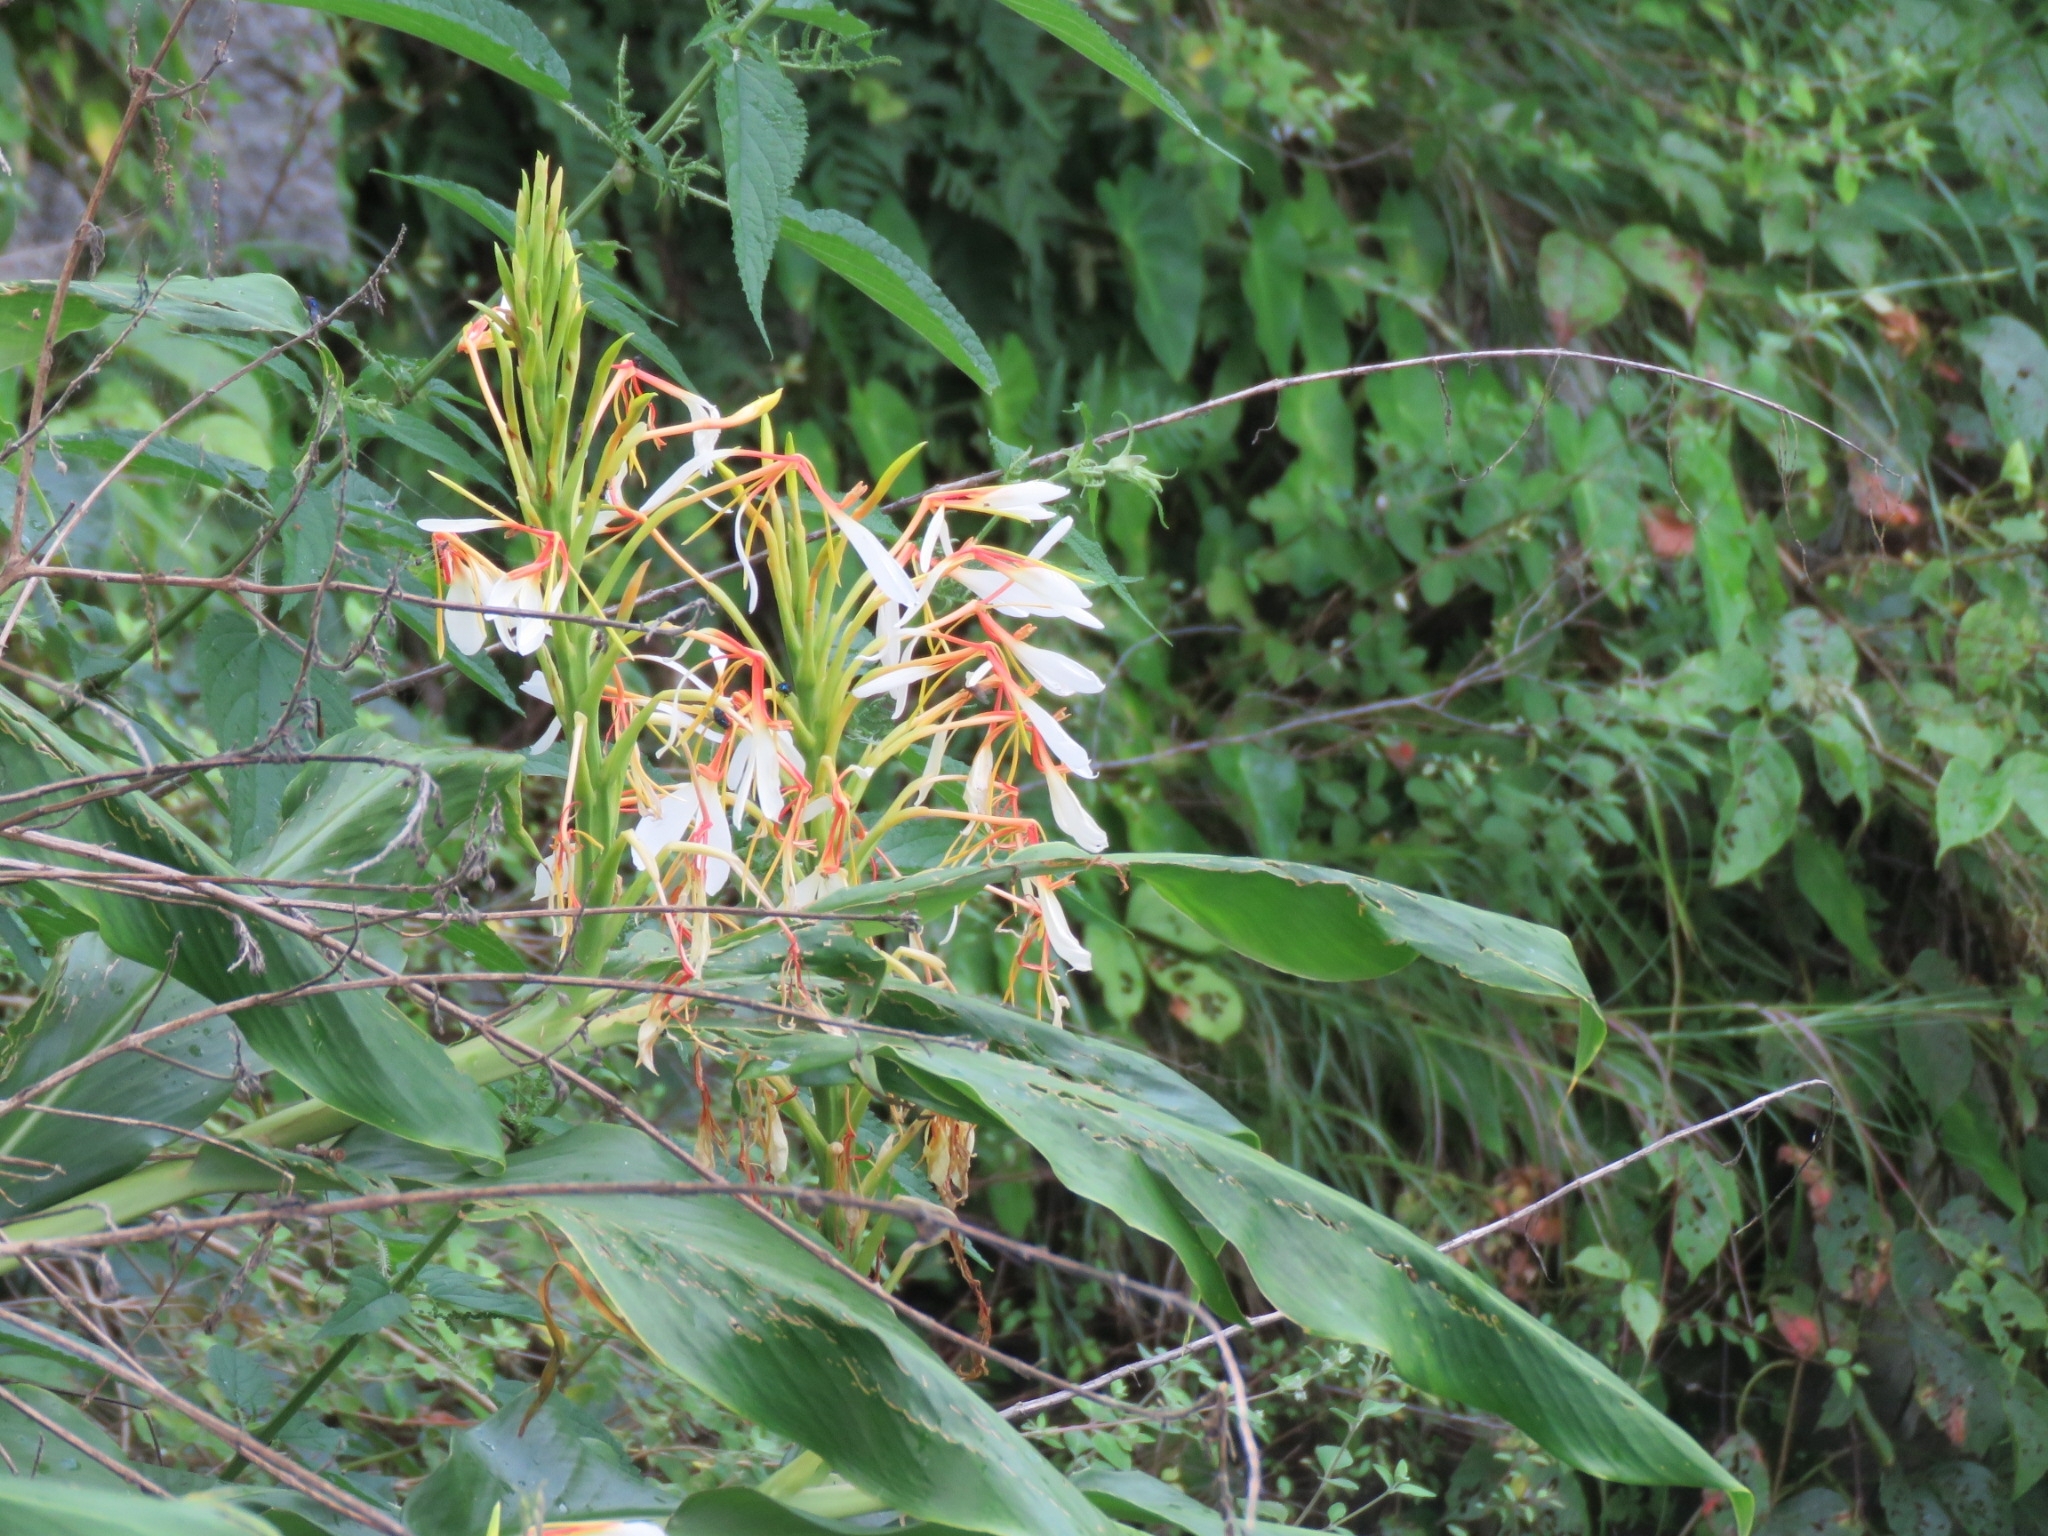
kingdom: Plantae
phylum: Tracheophyta
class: Liliopsida
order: Zingiberales
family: Zingiberaceae
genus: Hedychium
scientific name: Hedychium spicatum
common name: Spiked ginger-lily
